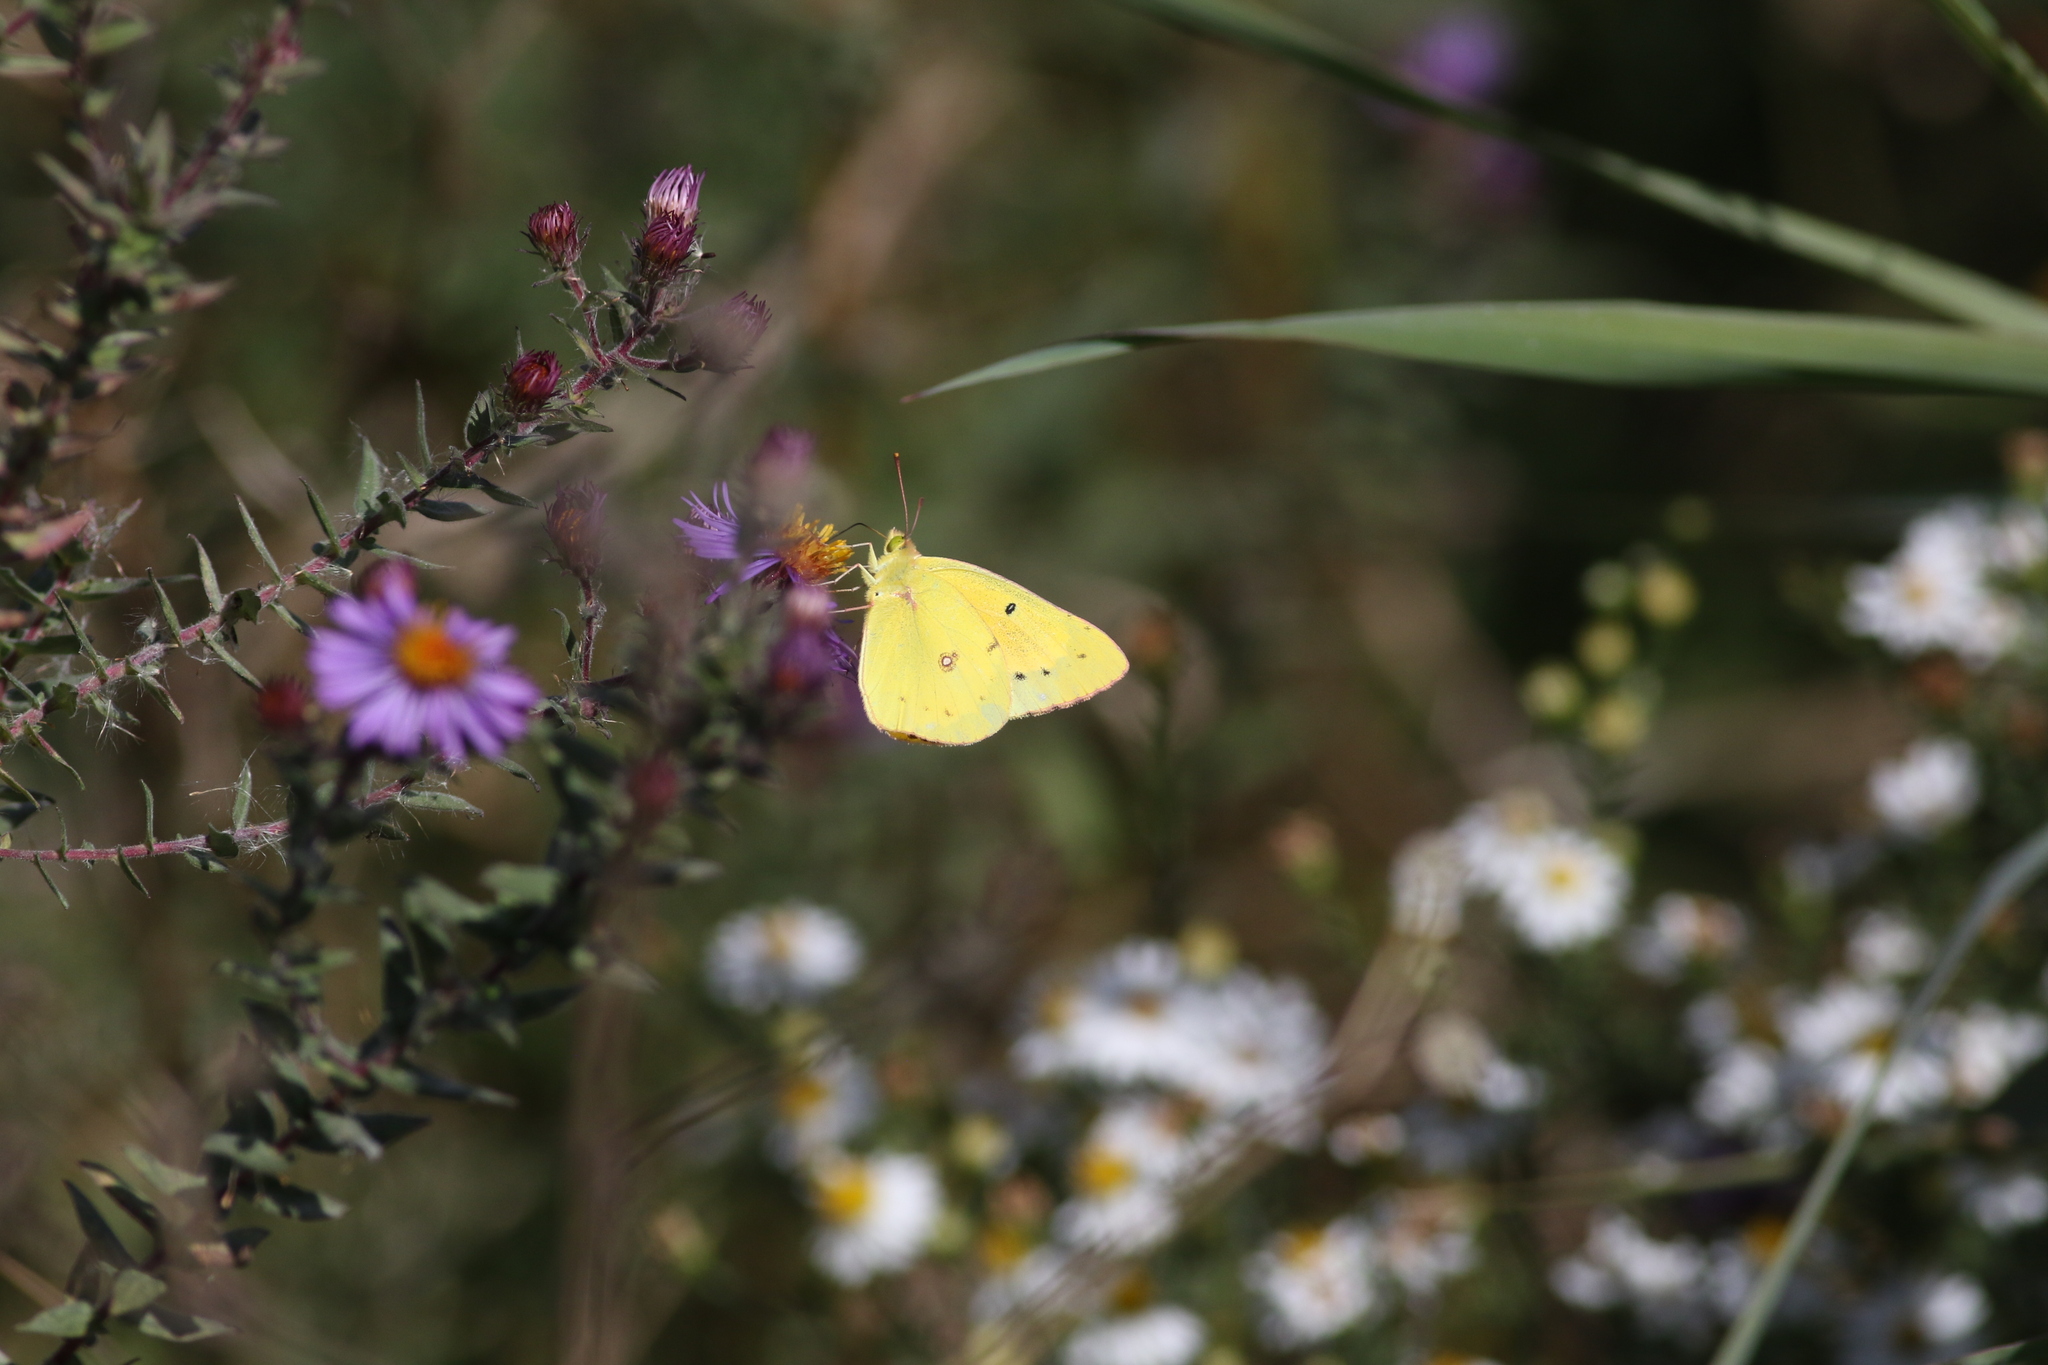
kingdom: Animalia
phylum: Arthropoda
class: Insecta
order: Lepidoptera
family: Pieridae
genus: Colias
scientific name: Colias eurytheme
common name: Alfalfa butterfly
